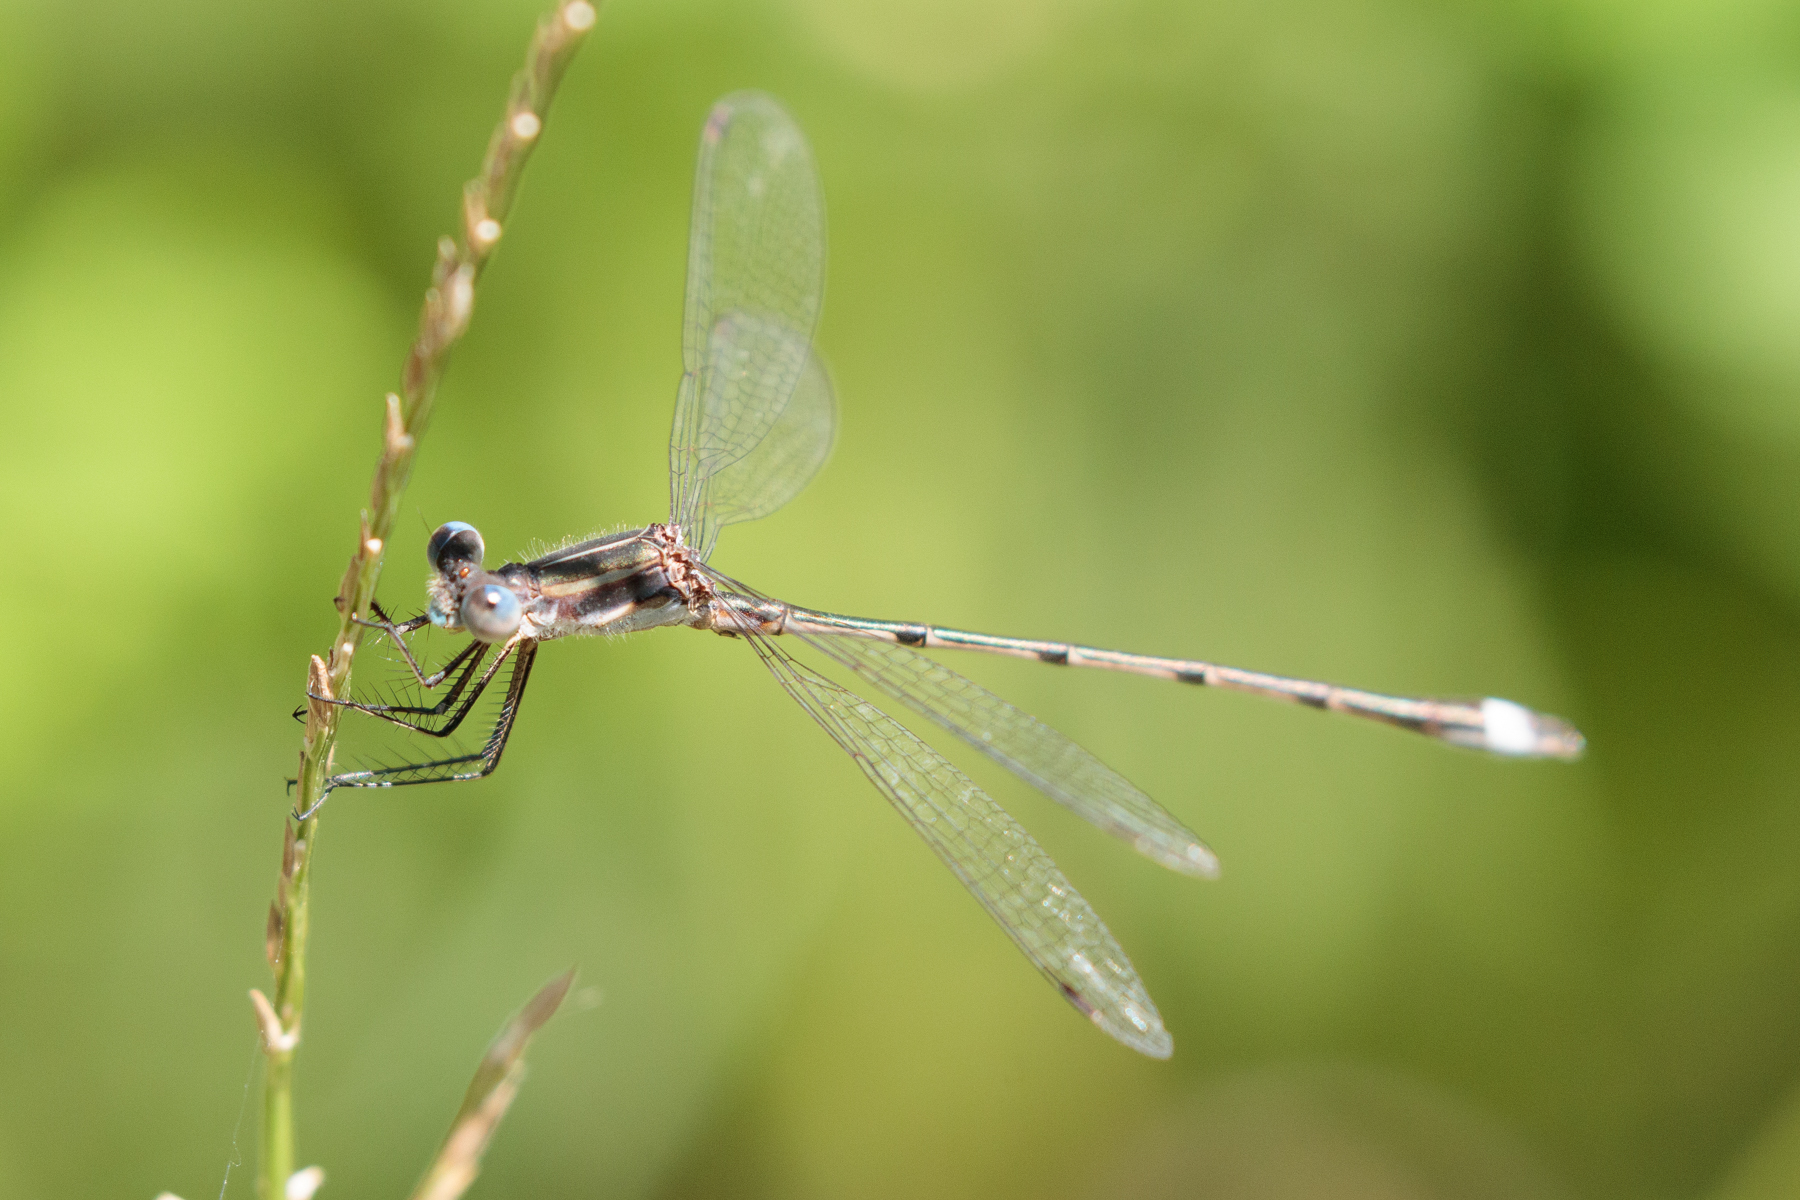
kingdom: Animalia
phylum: Arthropoda
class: Insecta
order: Odonata
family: Lestidae
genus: Lestes
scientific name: Lestes australis
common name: Southern spreadwing
